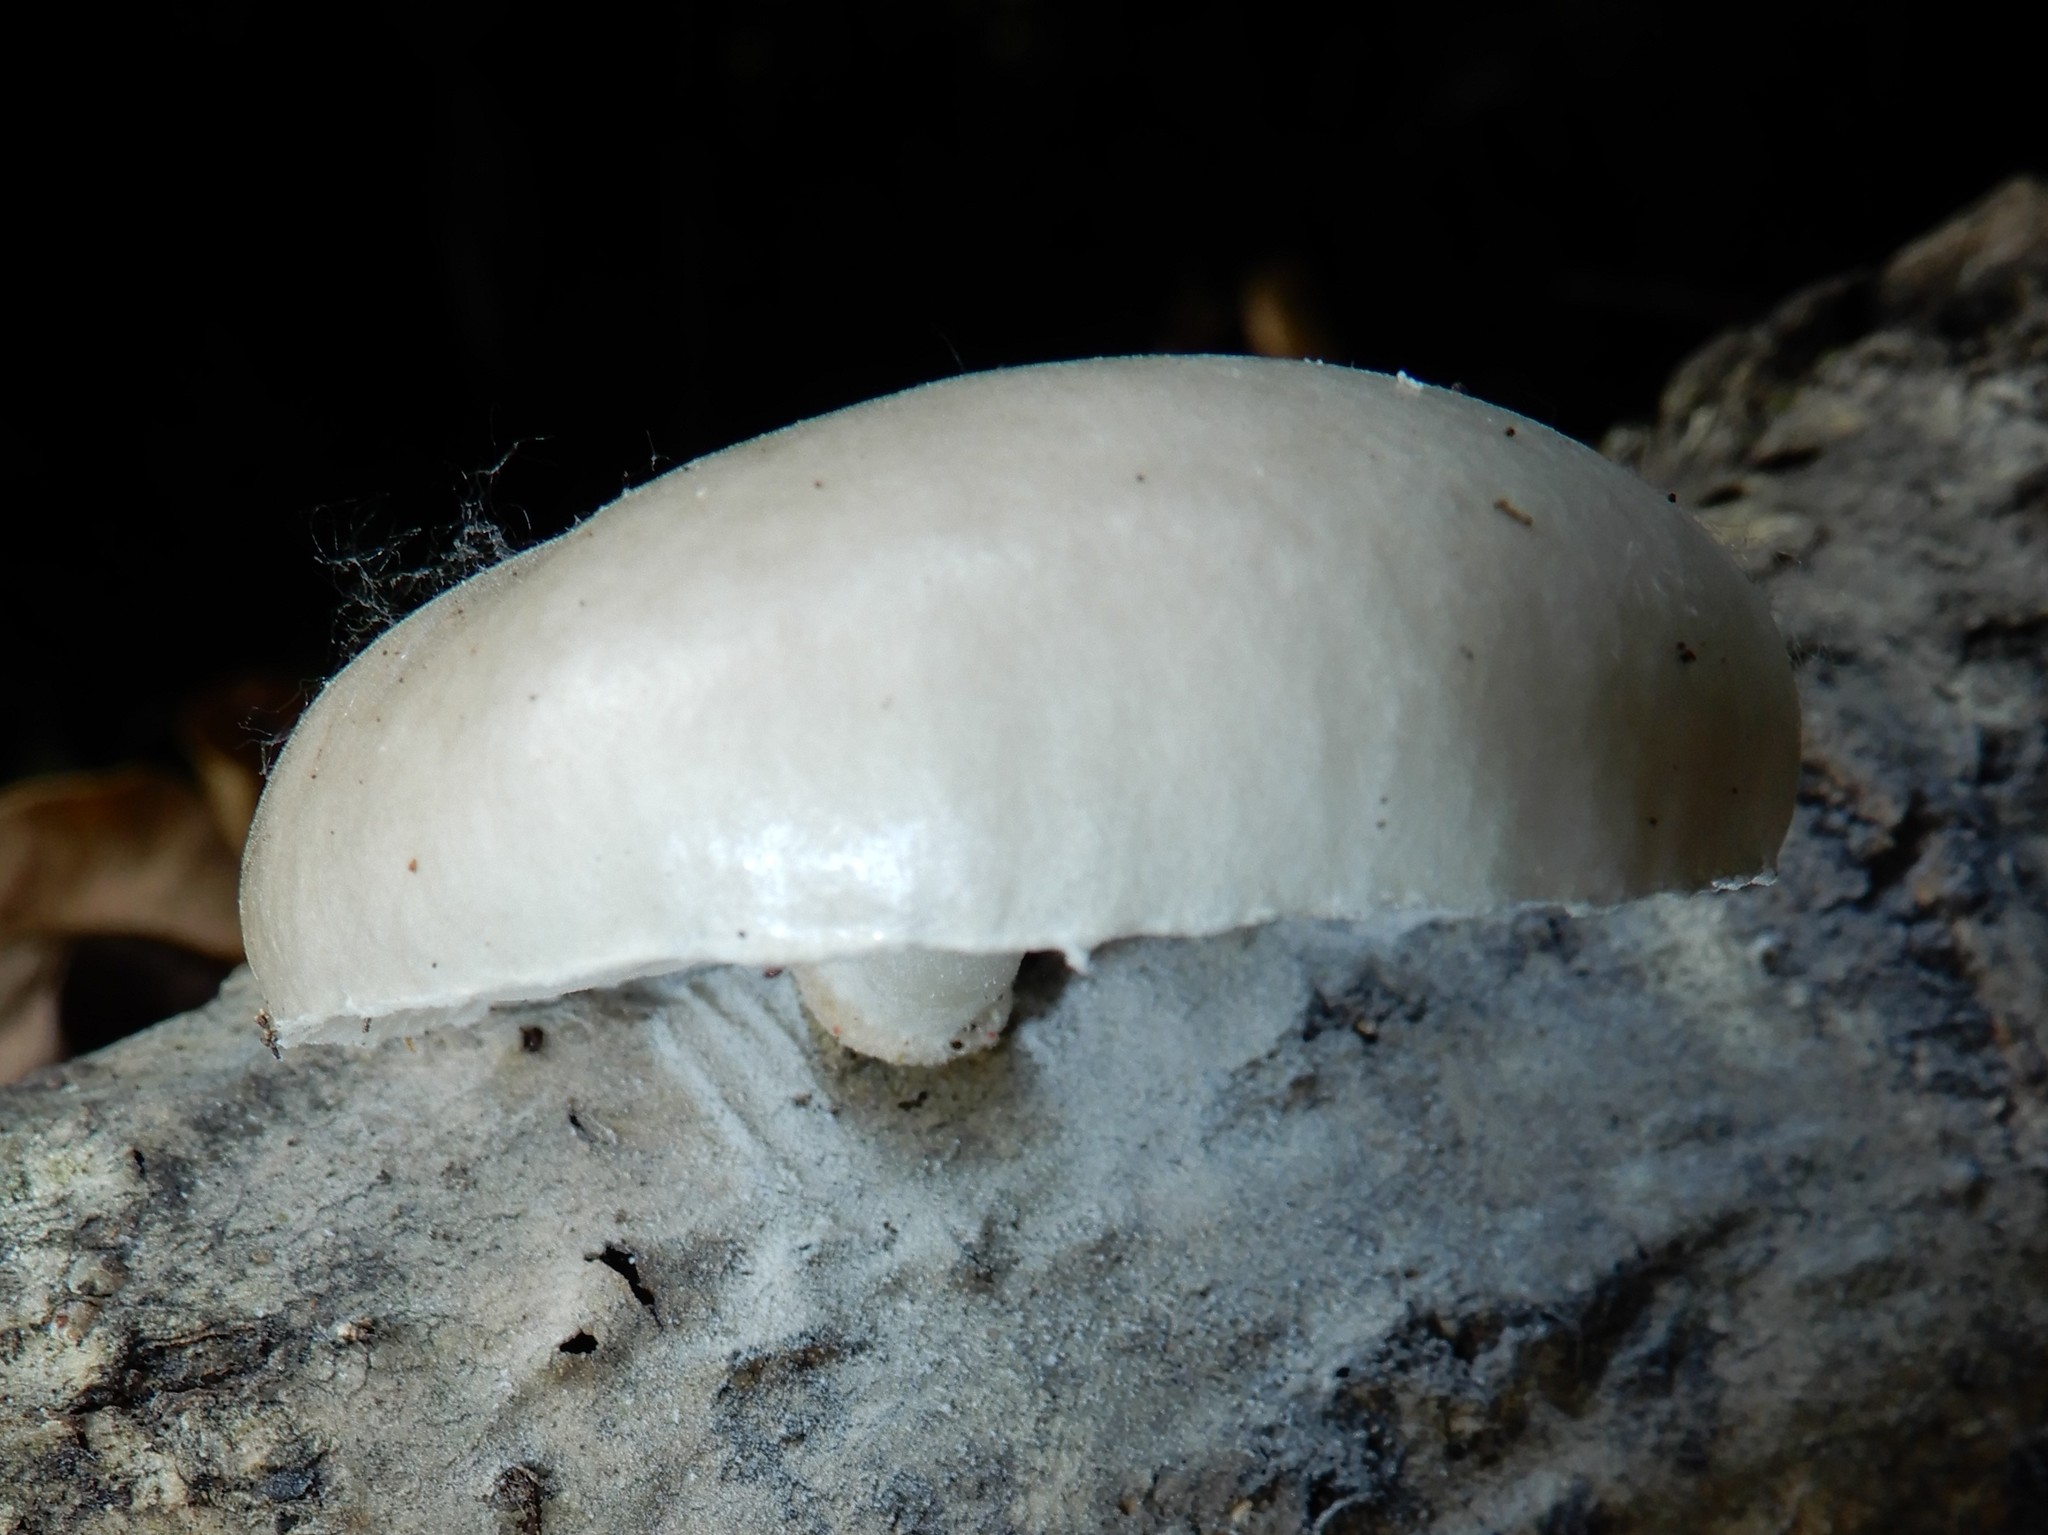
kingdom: Fungi
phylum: Basidiomycota
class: Agaricomycetes
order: Agaricales
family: Physalacriaceae
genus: Oudemansiella
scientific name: Oudemansiella australis
